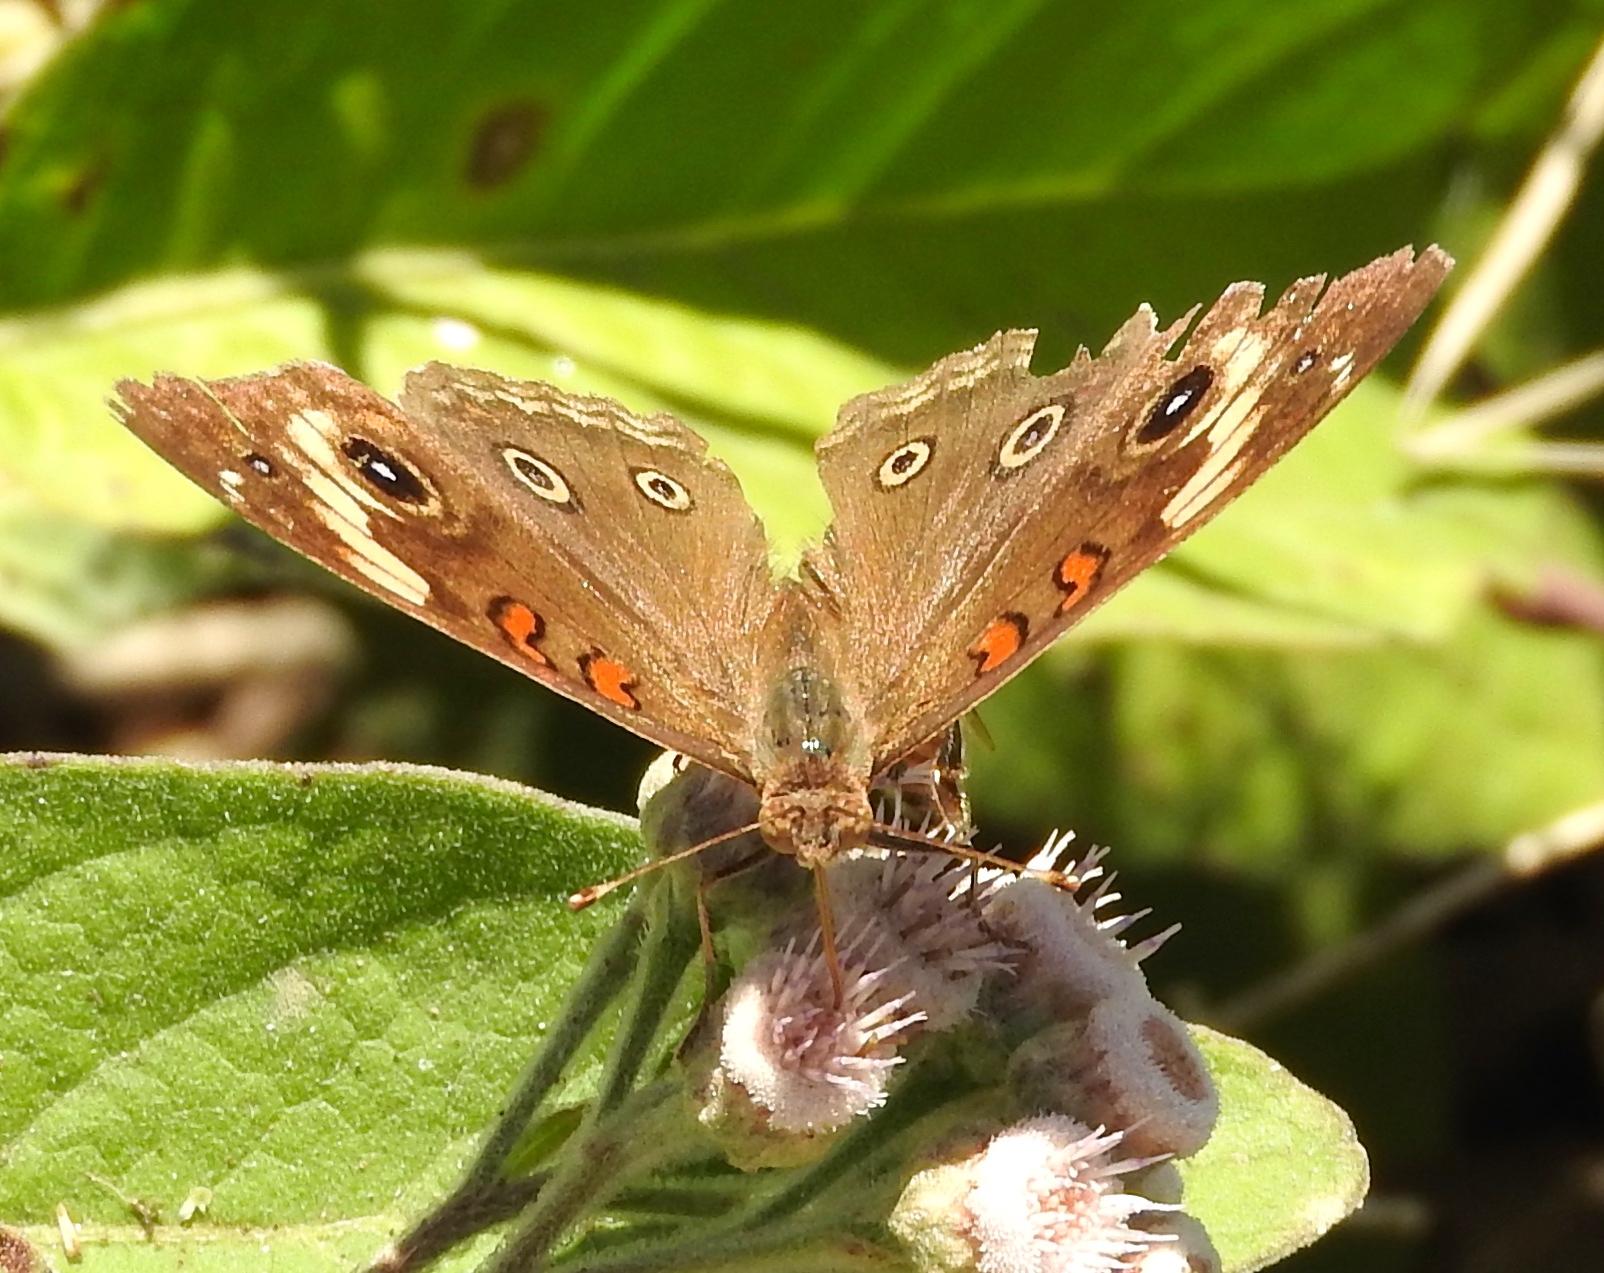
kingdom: Animalia
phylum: Arthropoda
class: Insecta
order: Lepidoptera
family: Nymphalidae
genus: Junonia
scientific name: Junonia
